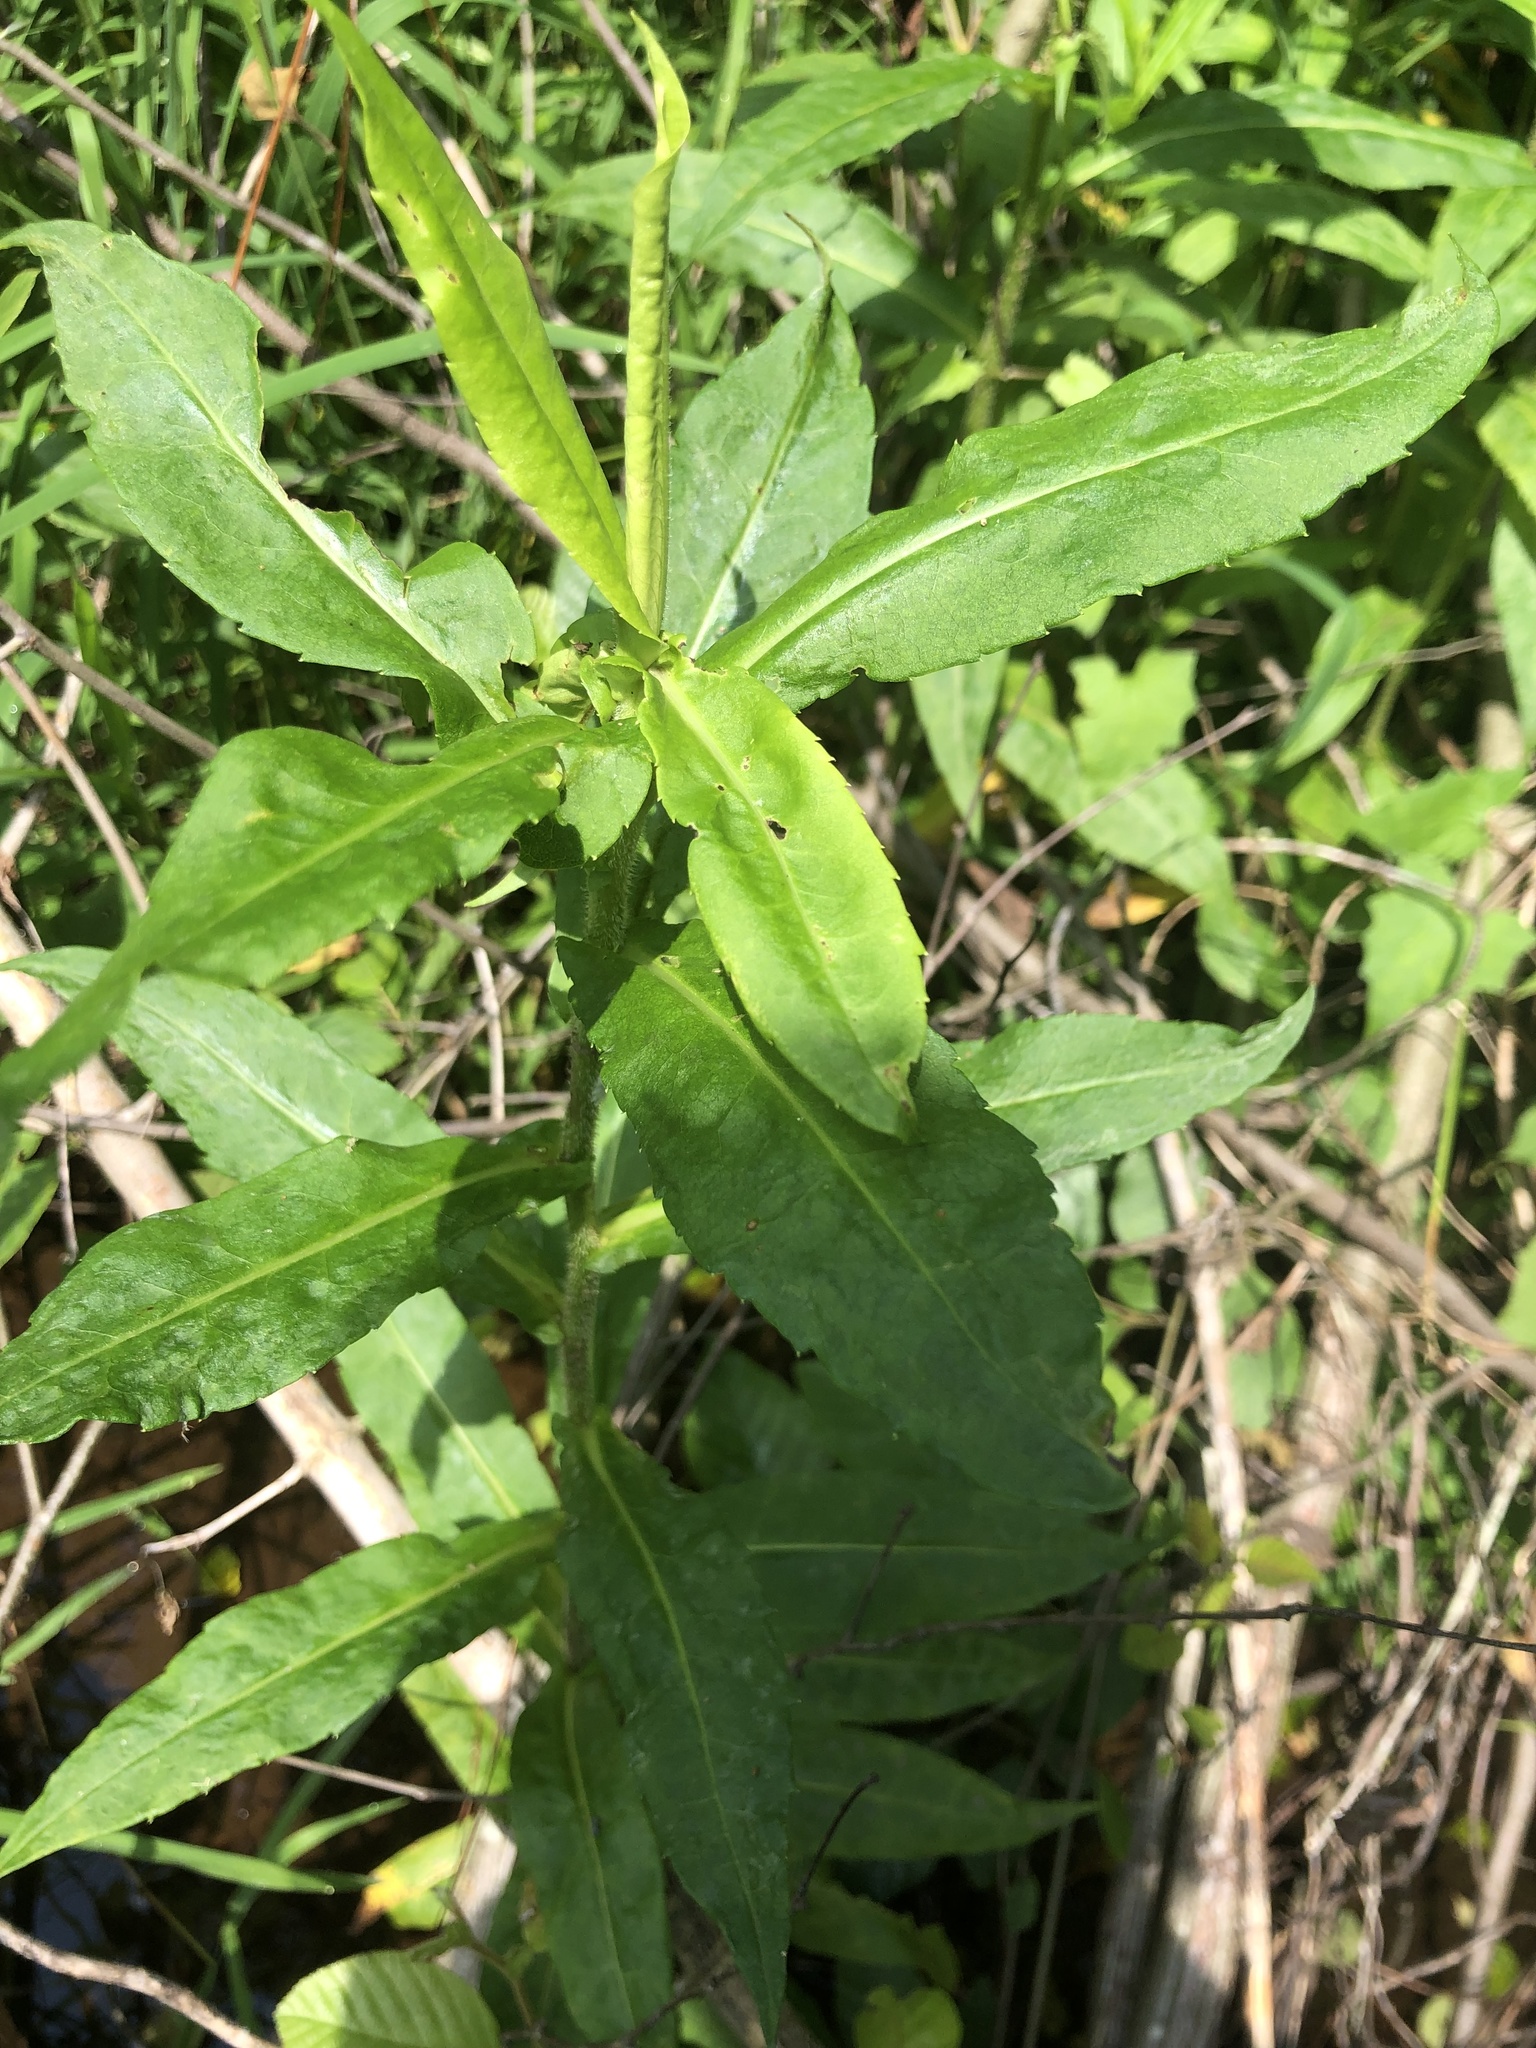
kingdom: Plantae
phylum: Tracheophyta
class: Magnoliopsida
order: Asterales
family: Asteraceae
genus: Symphyotrichum
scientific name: Symphyotrichum puniceum
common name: Bog aster
